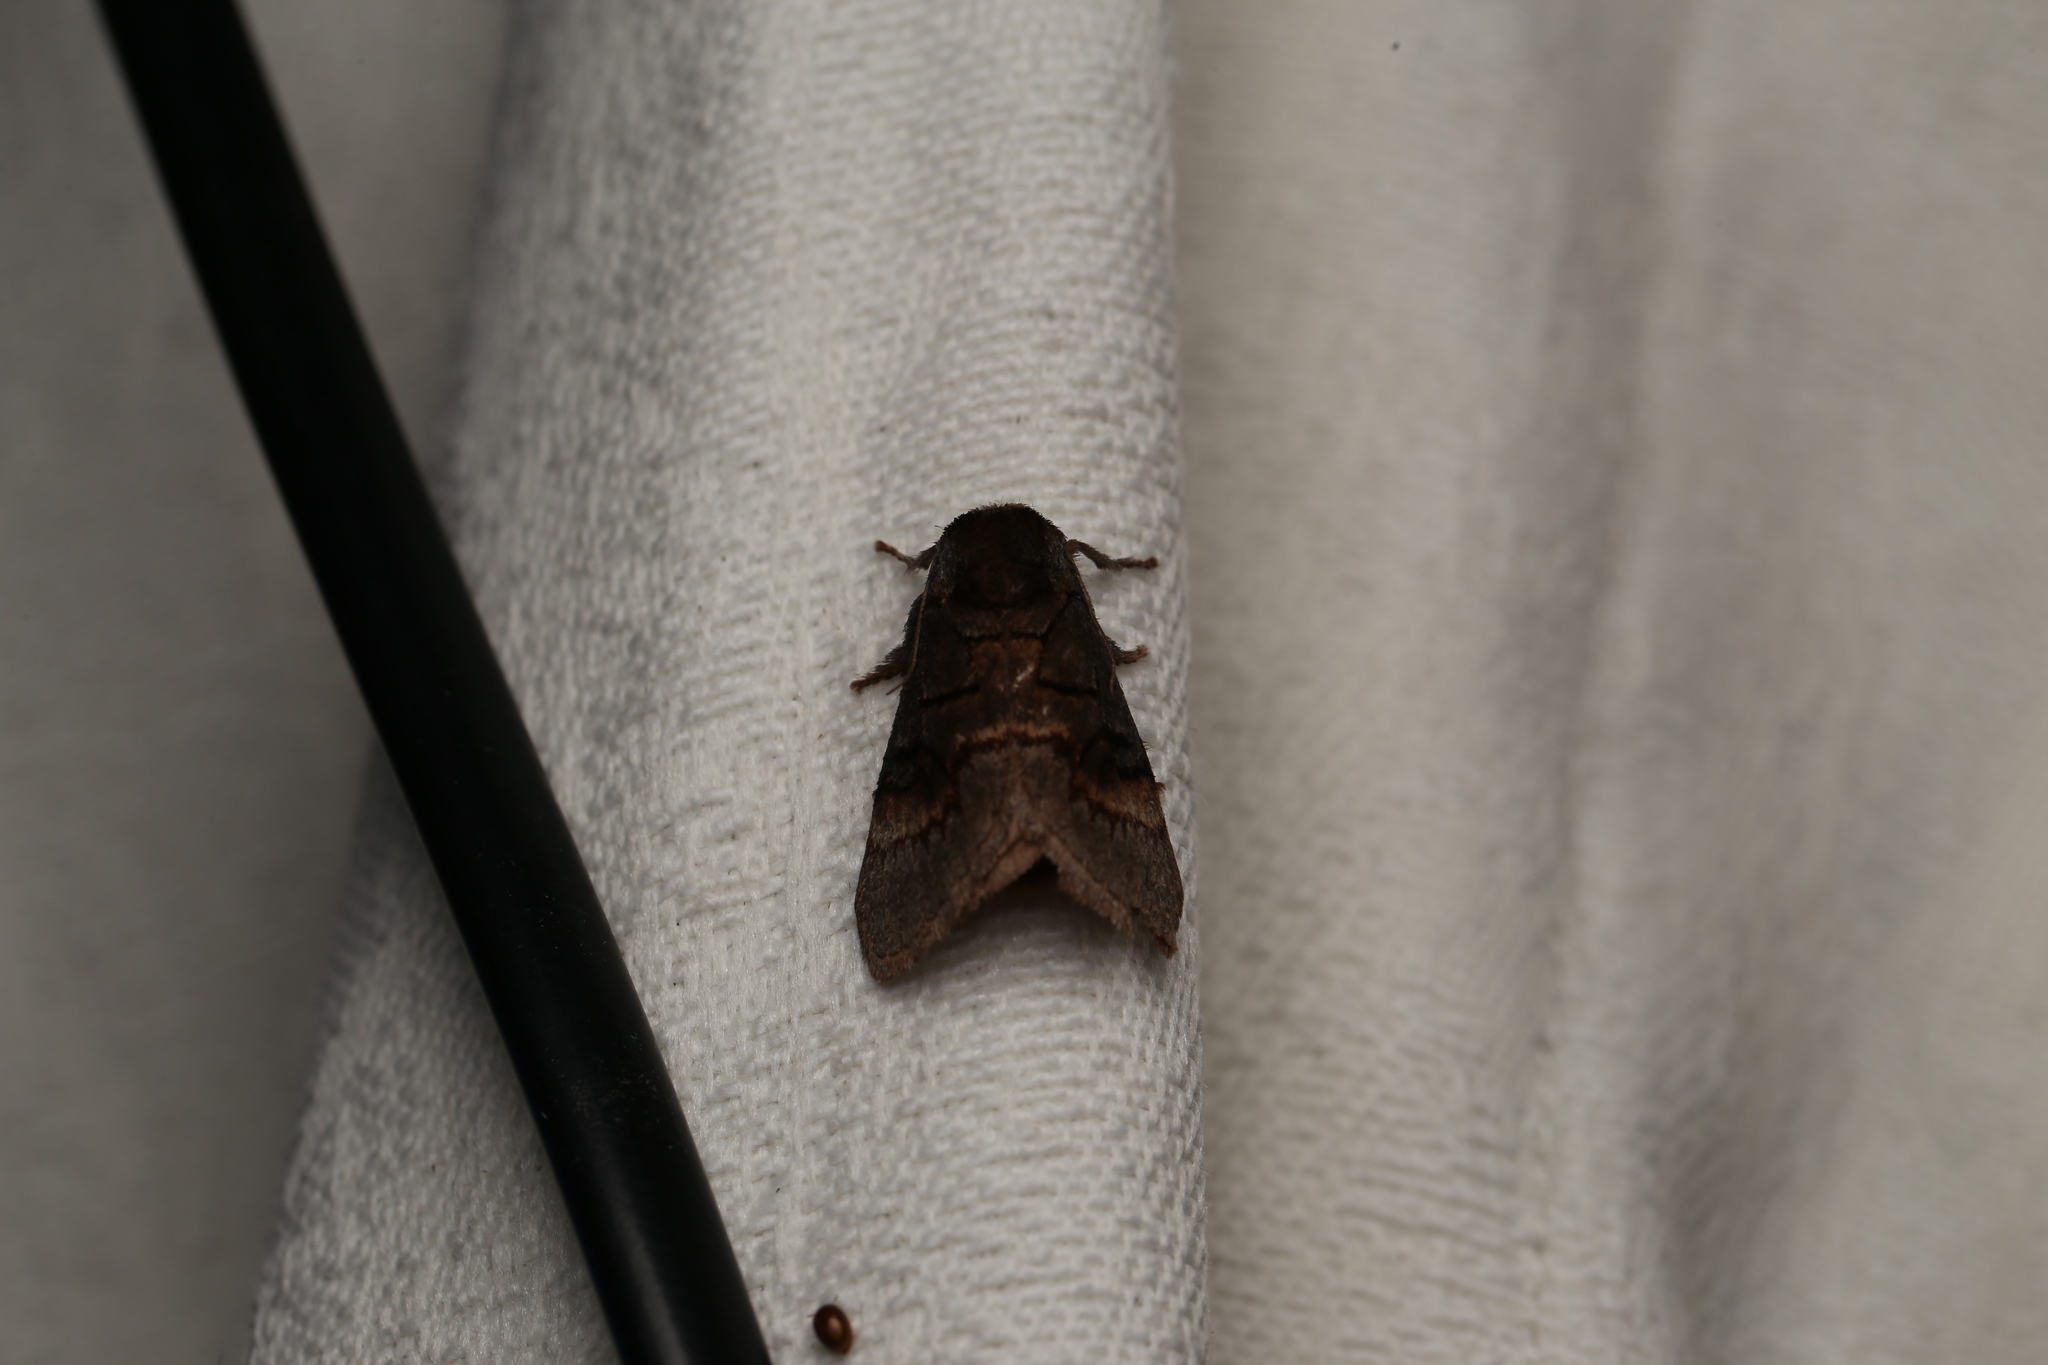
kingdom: Animalia
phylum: Arthropoda
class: Insecta
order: Lepidoptera
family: Limacodidae
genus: Parasoidea
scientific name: Parasoidea paroa
